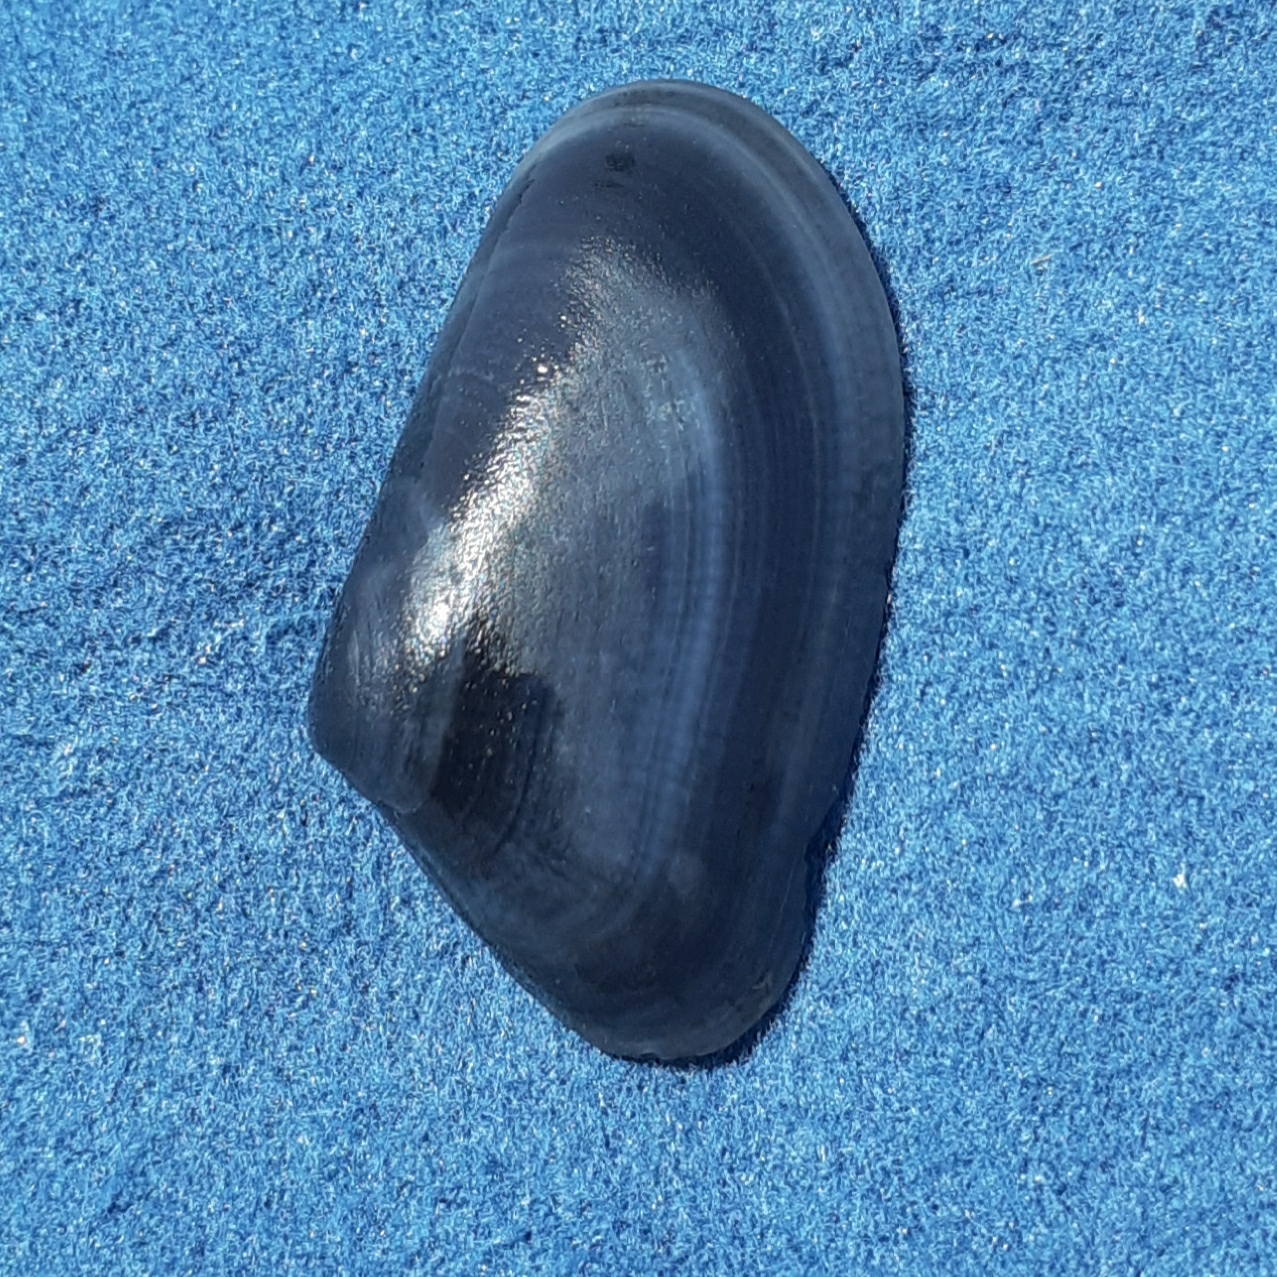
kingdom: Animalia
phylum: Mollusca
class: Bivalvia
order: Cardiida
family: Donacidae
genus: Donax
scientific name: Donax trunculus
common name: Truncate donax
